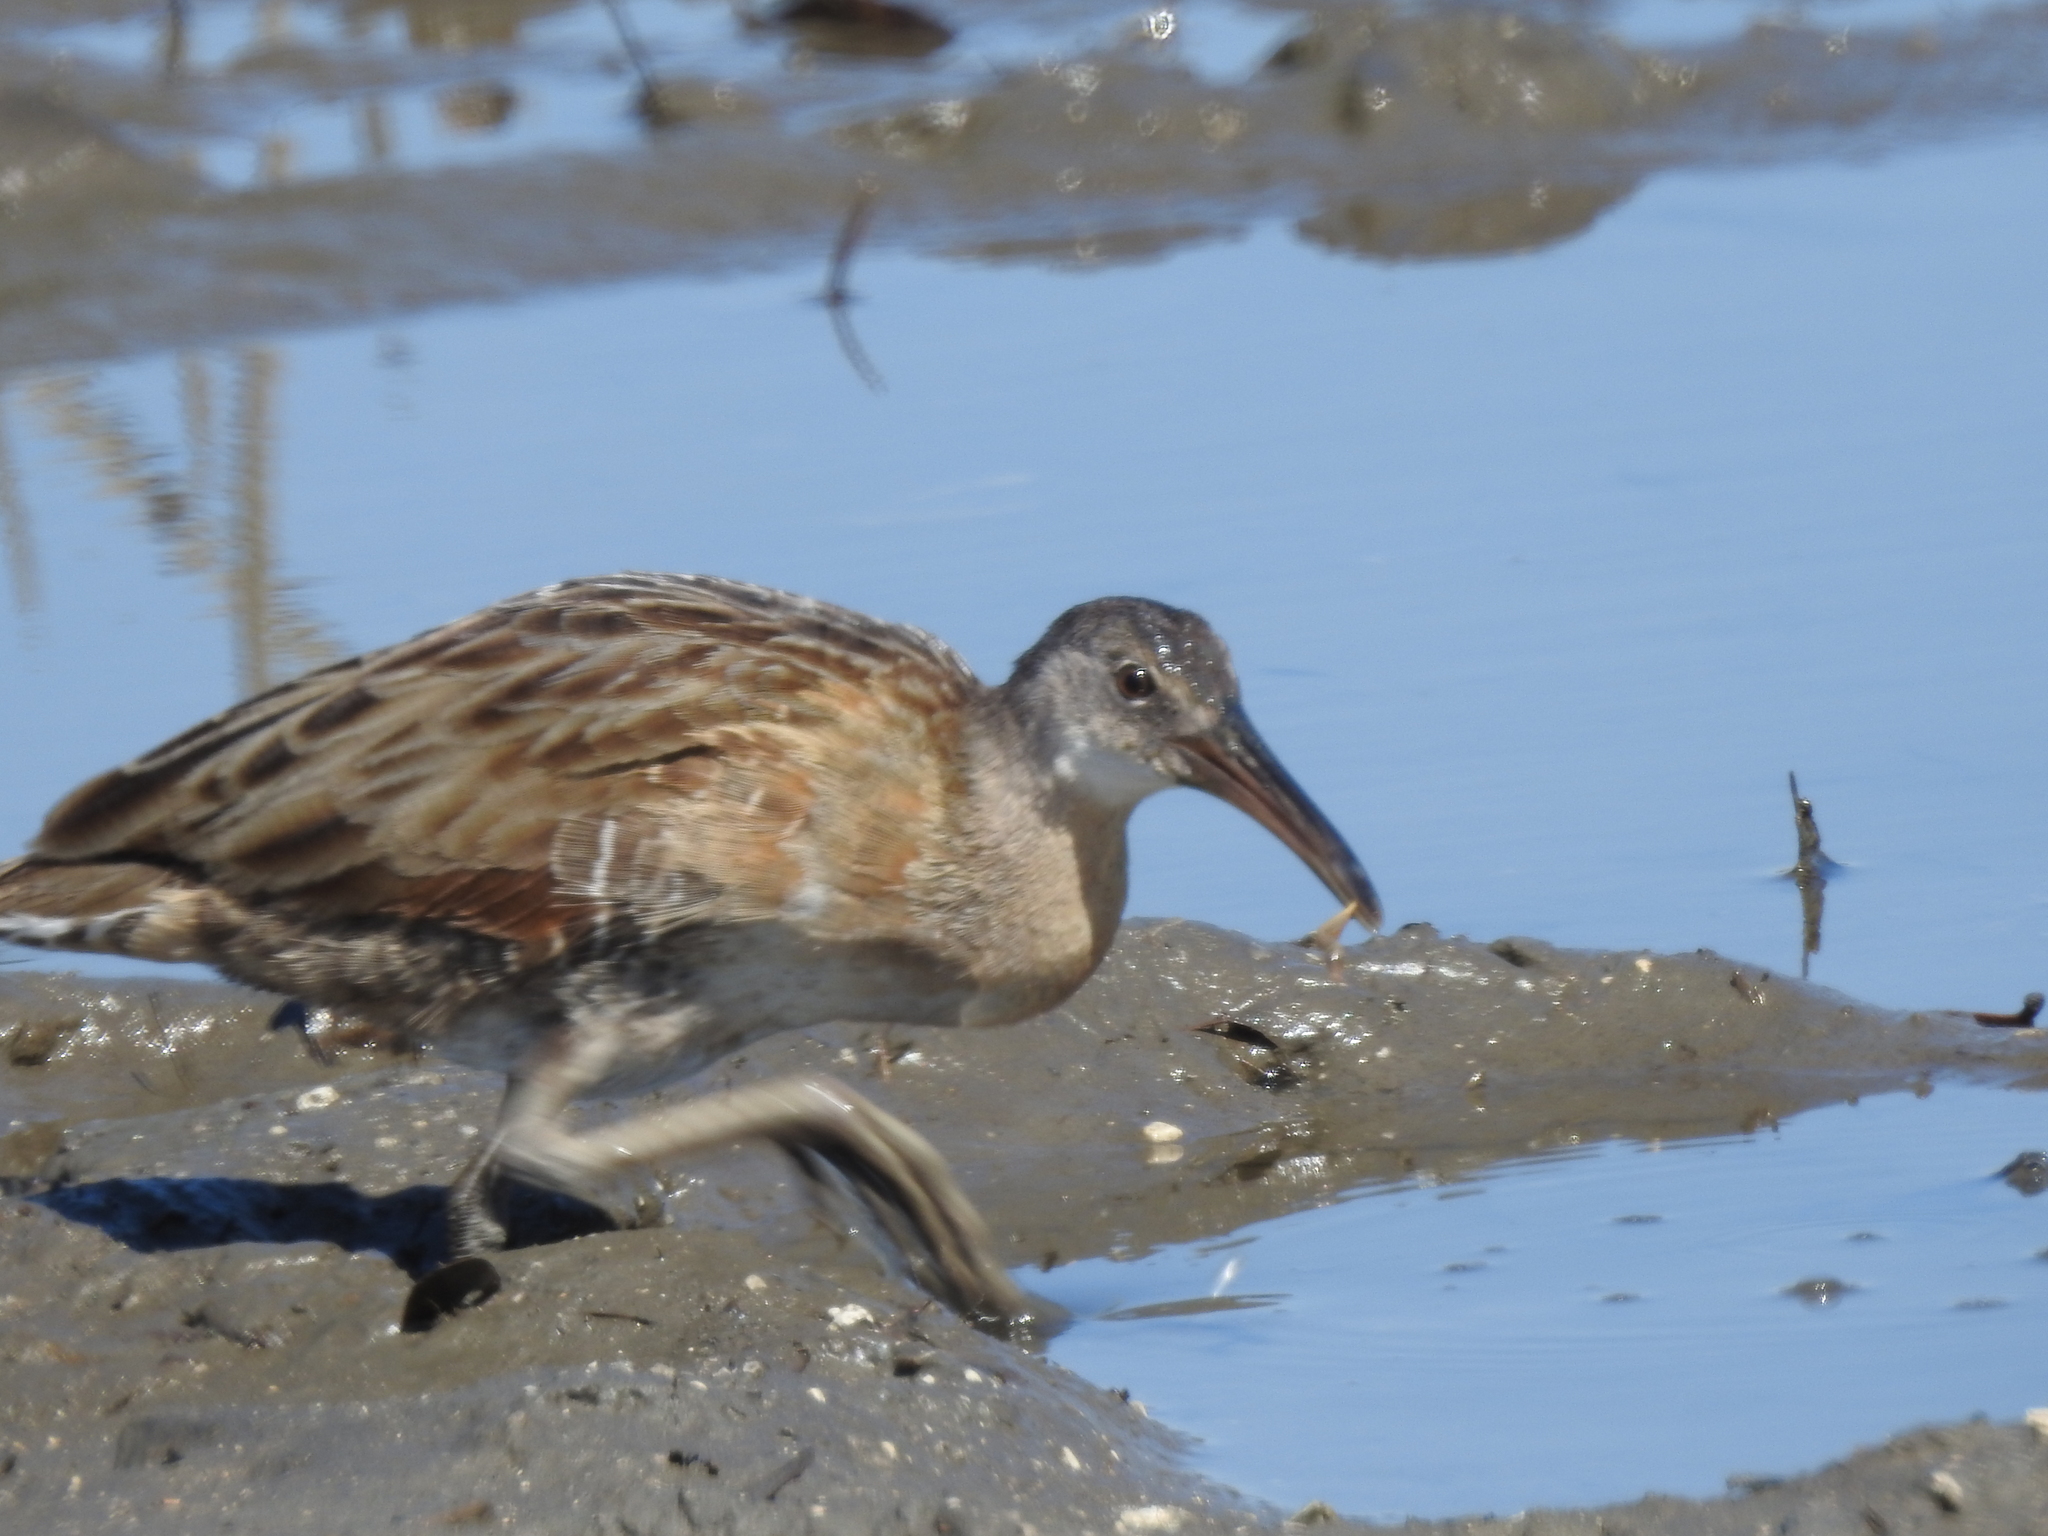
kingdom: Animalia
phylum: Chordata
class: Aves
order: Gruiformes
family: Rallidae
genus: Rallus
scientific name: Rallus crepitans
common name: Clapper rail
